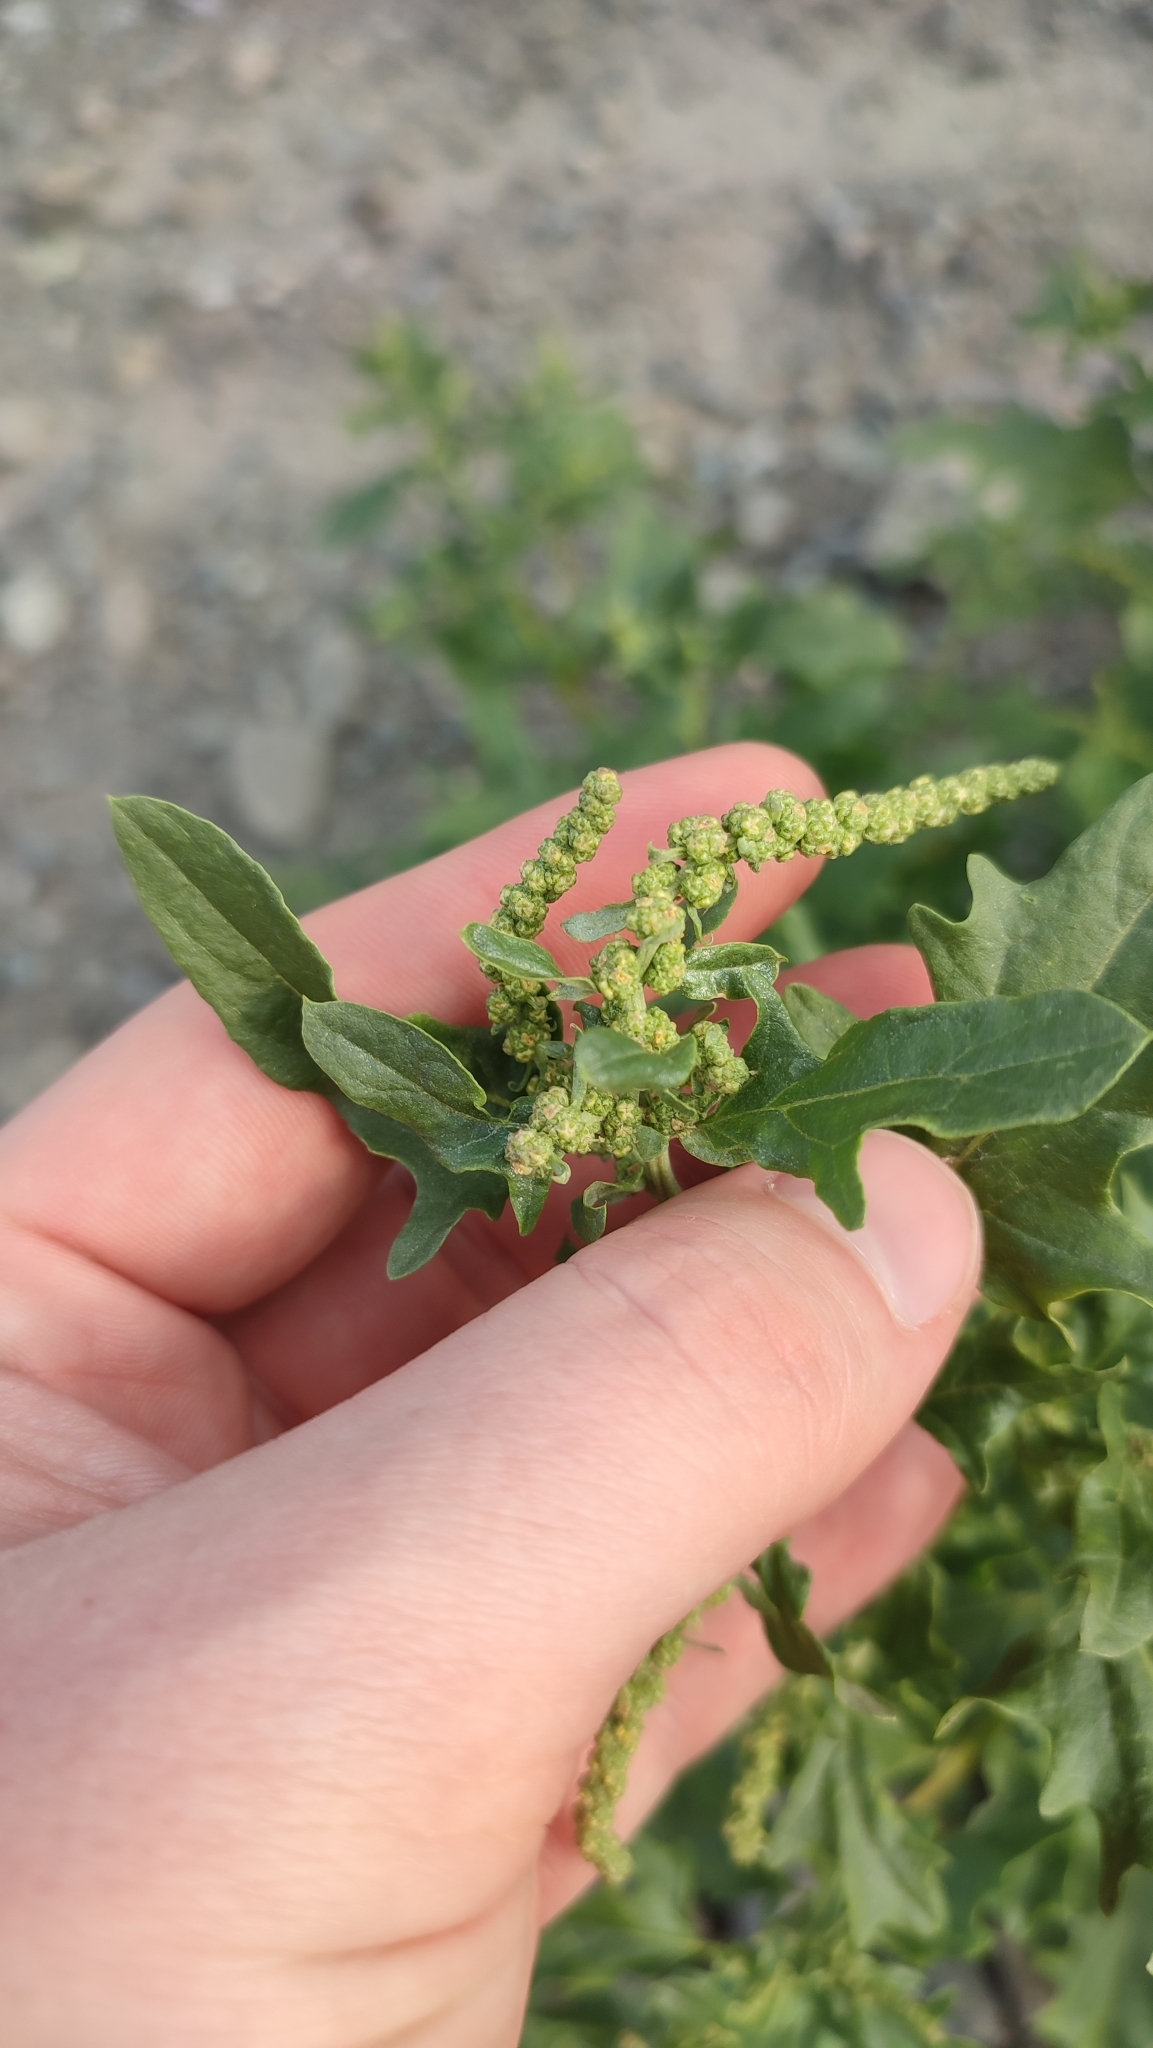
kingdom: Plantae
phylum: Tracheophyta
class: Magnoliopsida
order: Caryophyllales
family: Amaranthaceae
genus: Atriplex
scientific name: Atriplex tatarica
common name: Tatarian orache
